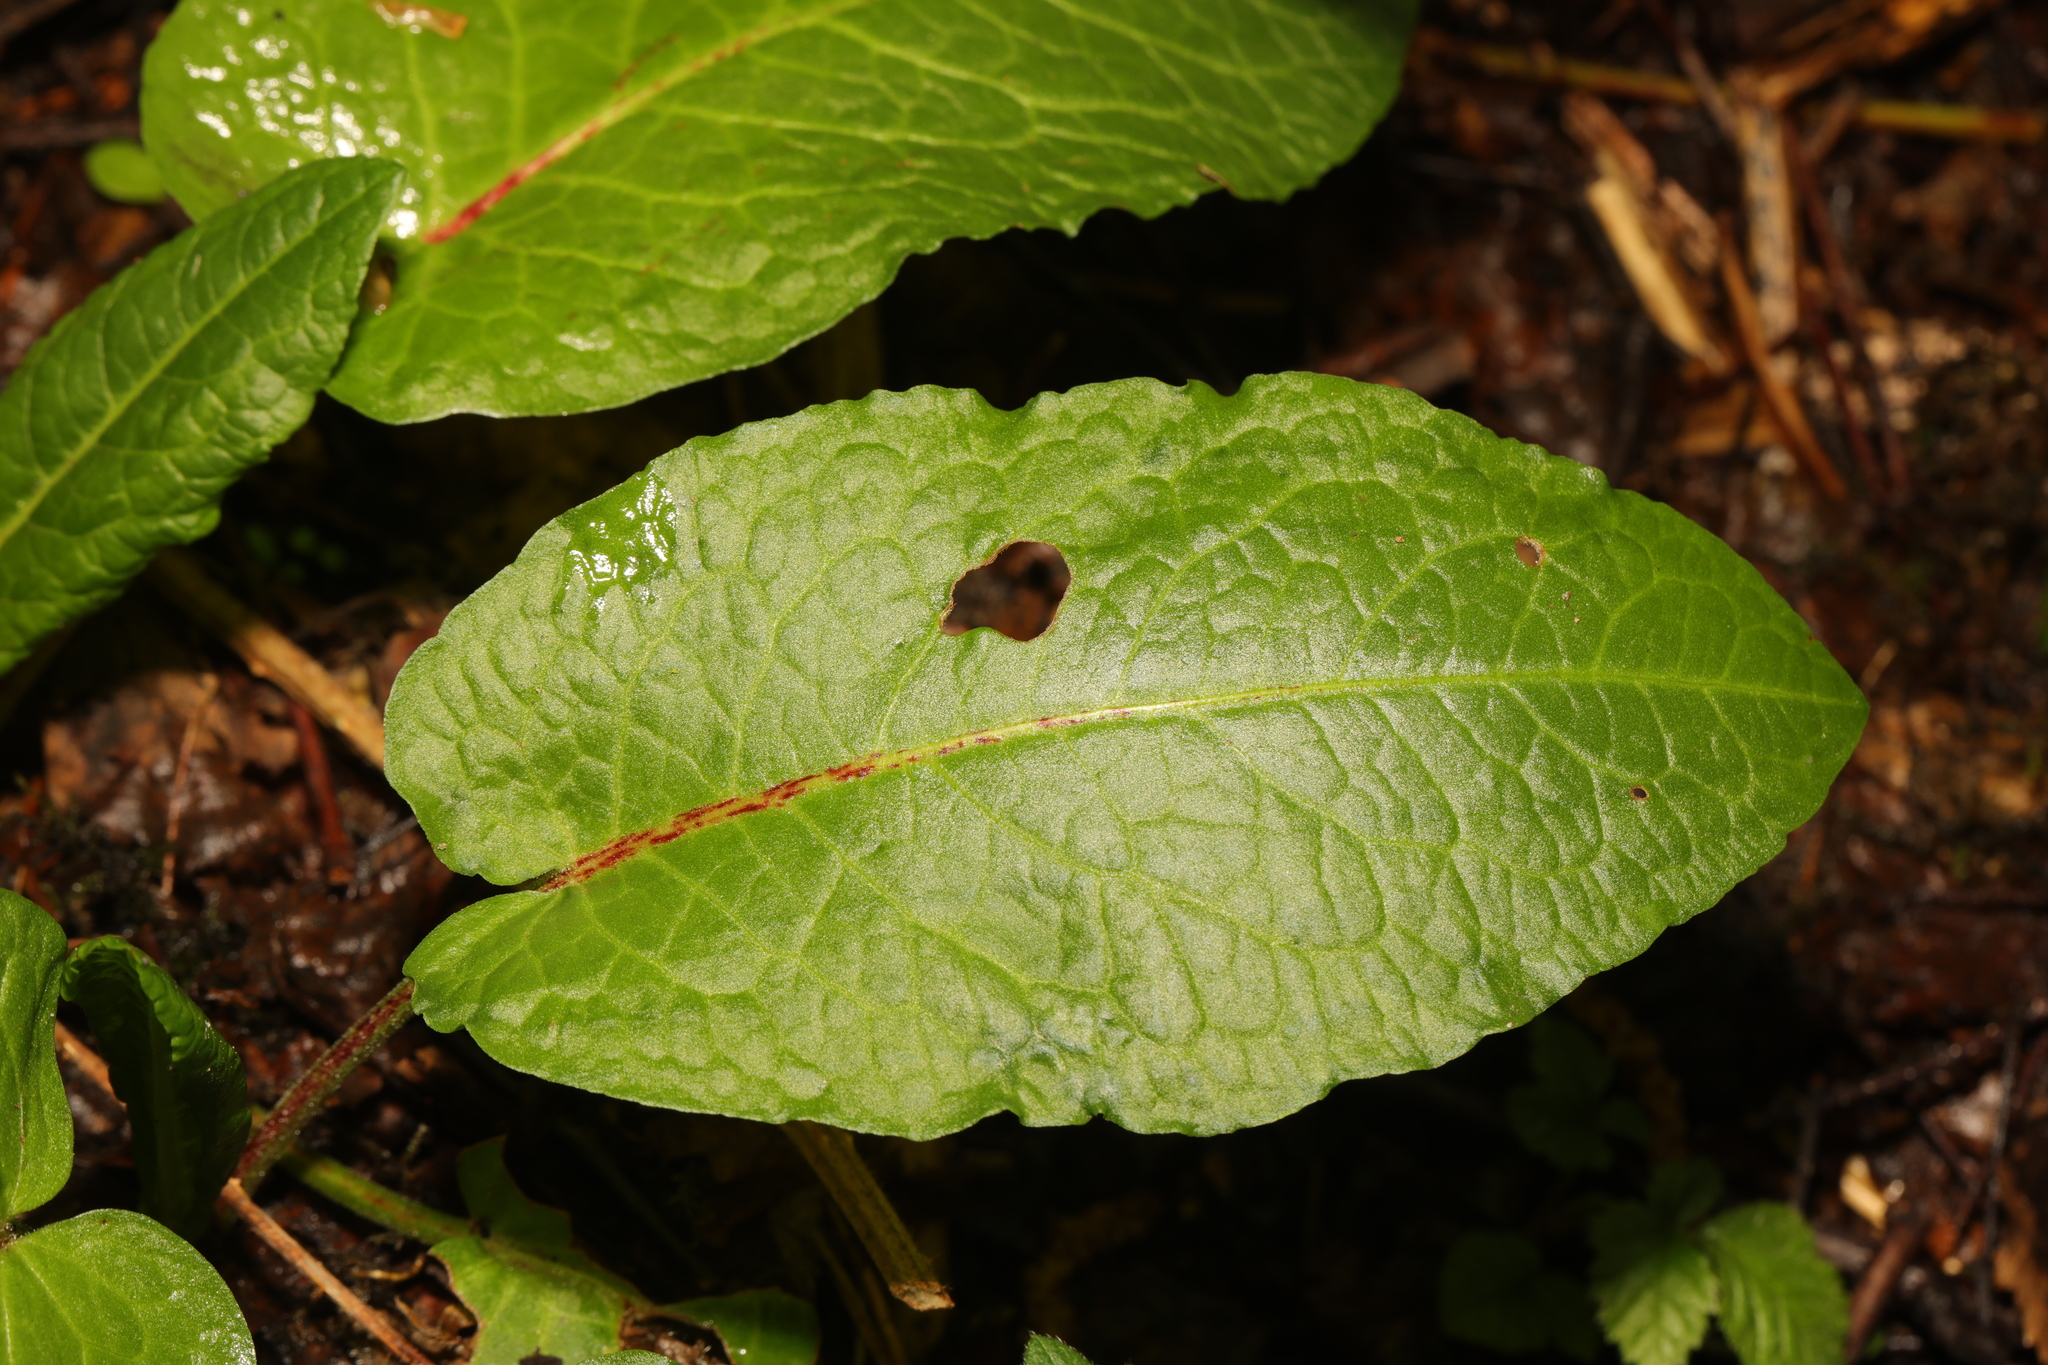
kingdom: Plantae
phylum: Tracheophyta
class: Magnoliopsida
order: Caryophyllales
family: Polygonaceae
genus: Rumex
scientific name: Rumex obtusifolius
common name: Bitter dock
